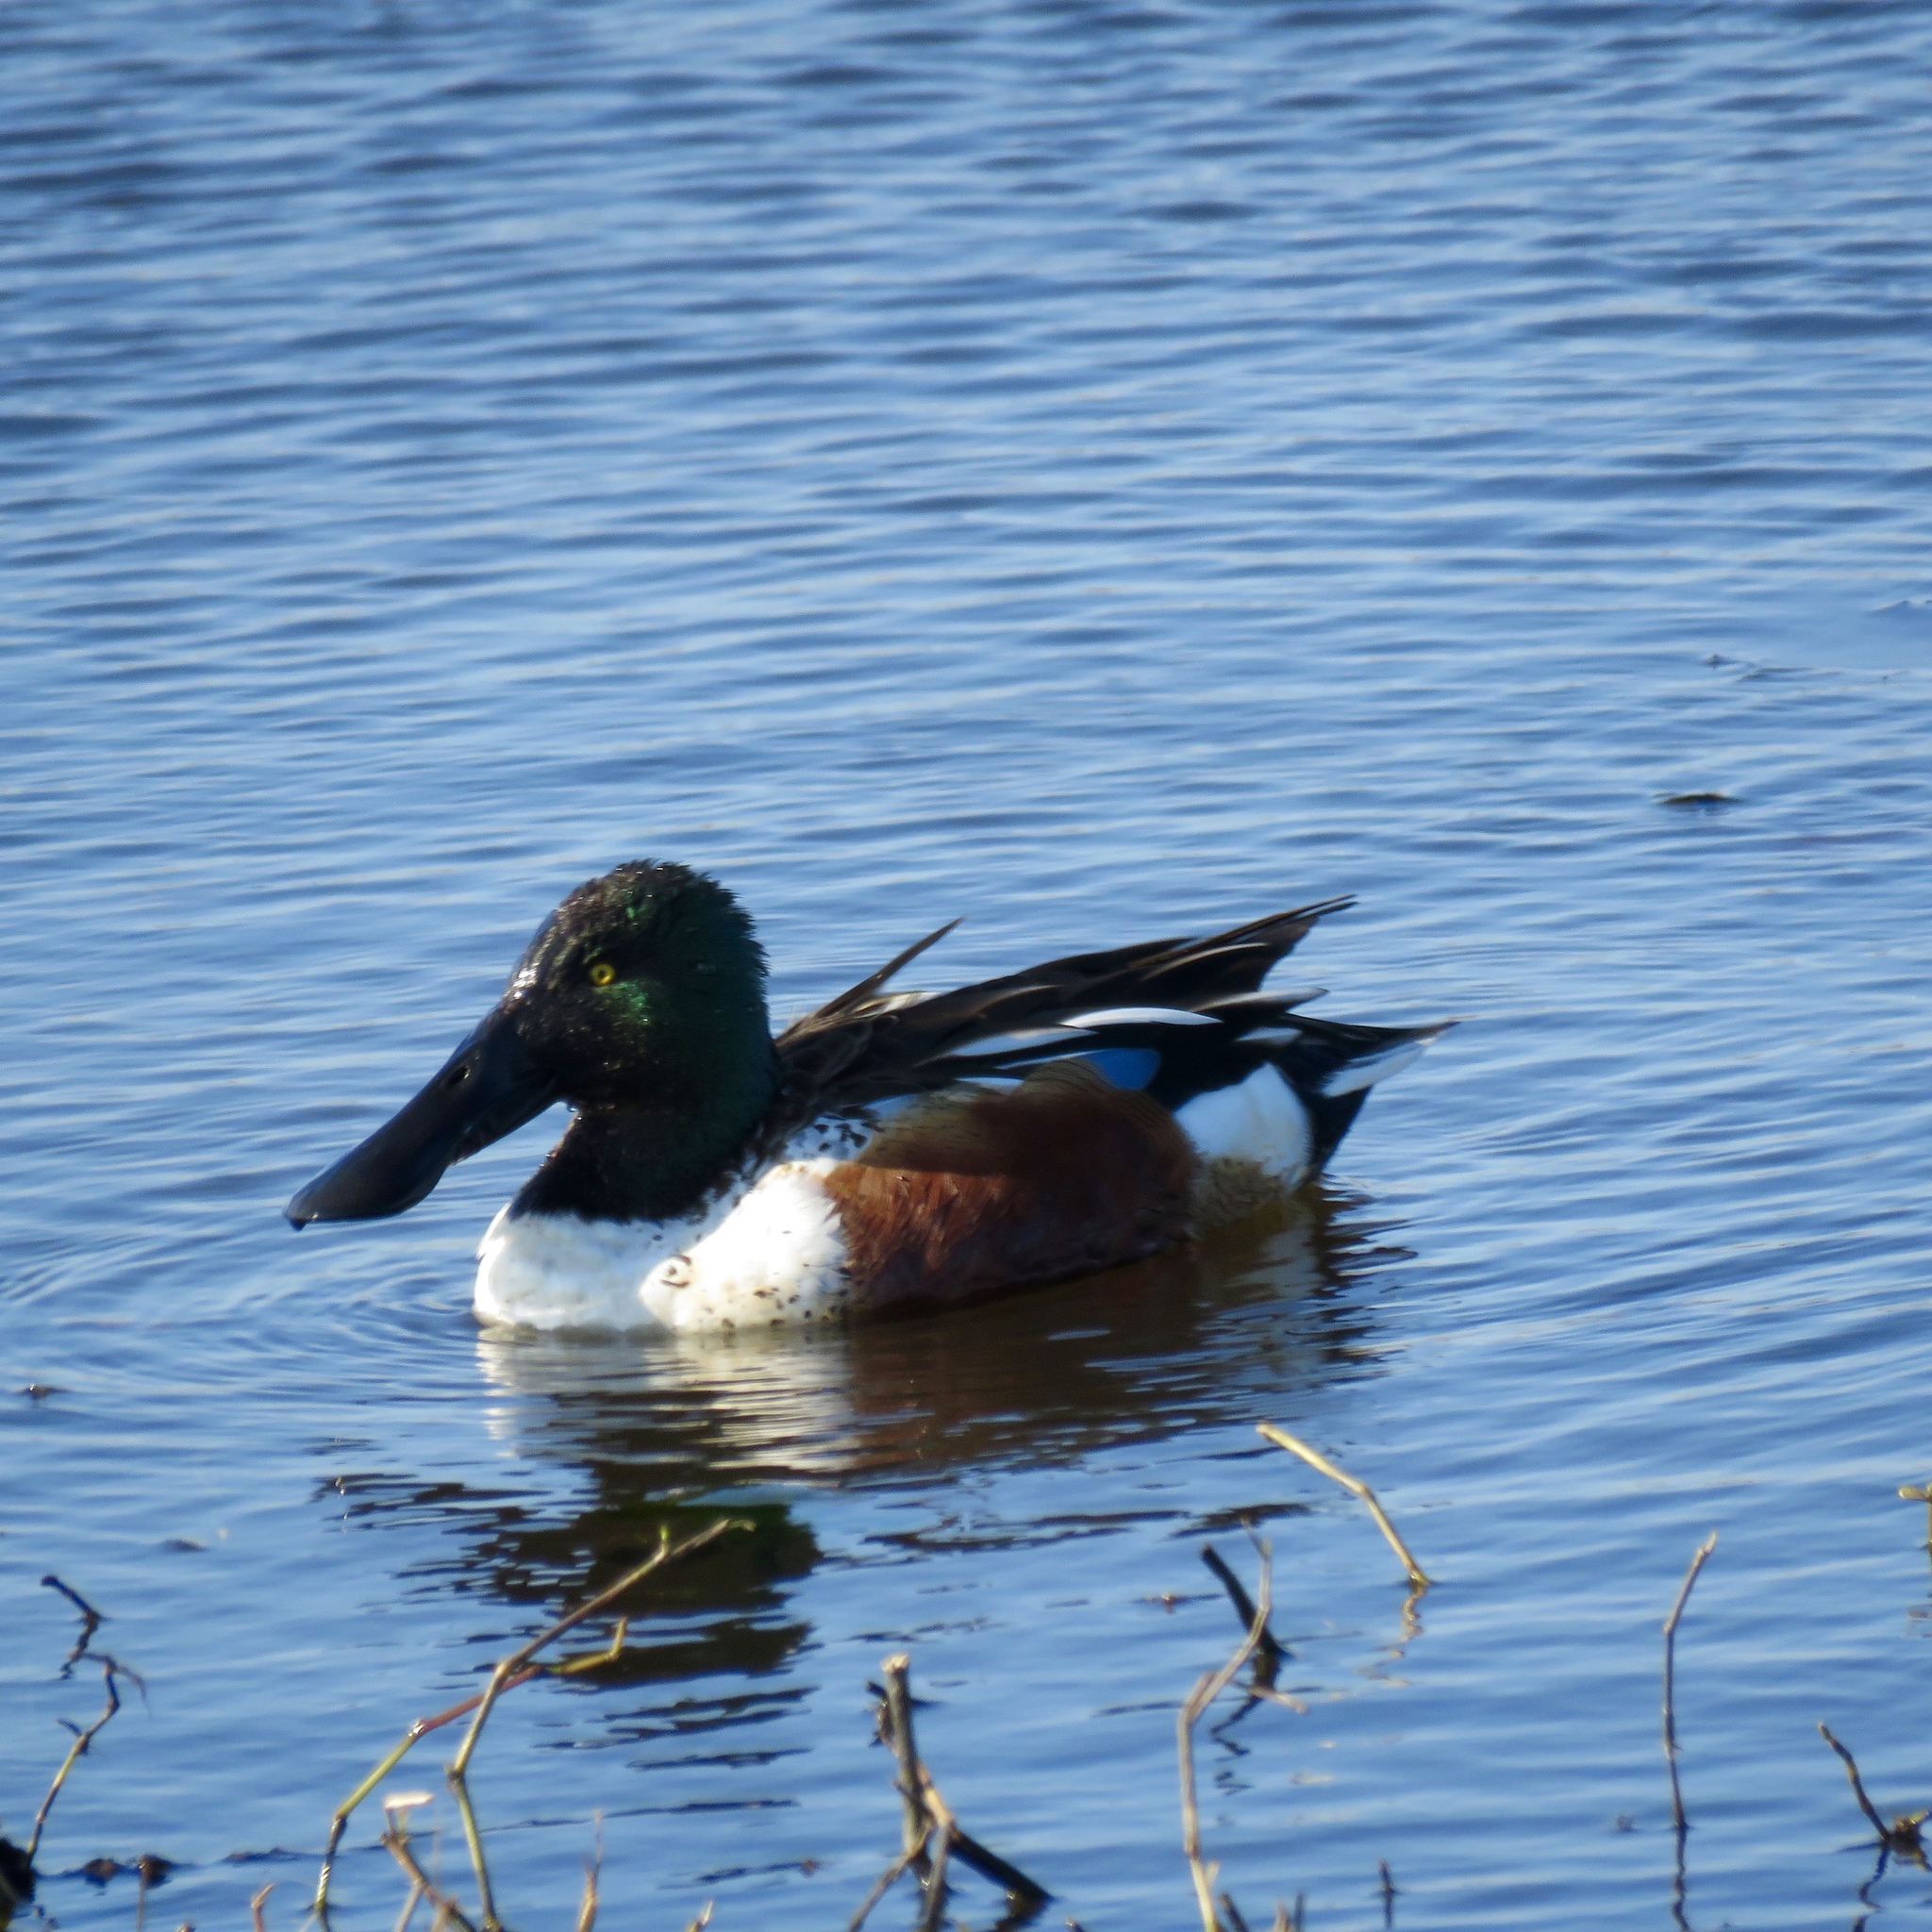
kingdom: Animalia
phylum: Chordata
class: Aves
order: Anseriformes
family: Anatidae
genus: Spatula
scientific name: Spatula clypeata
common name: Northern shoveler
